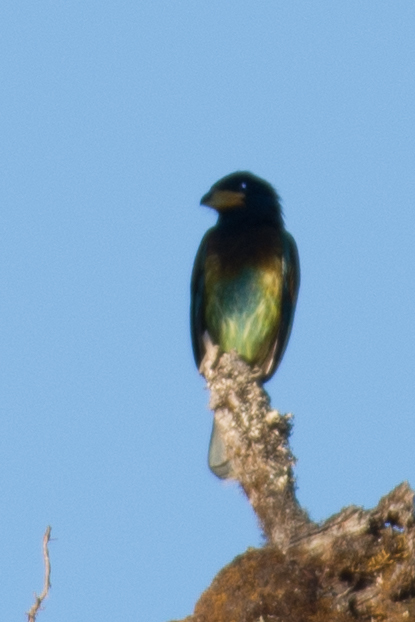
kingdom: Animalia
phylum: Chordata
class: Aves
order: Piciformes
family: Megalaimidae
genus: Psilopogon
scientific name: Psilopogon virens
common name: Great barbet
